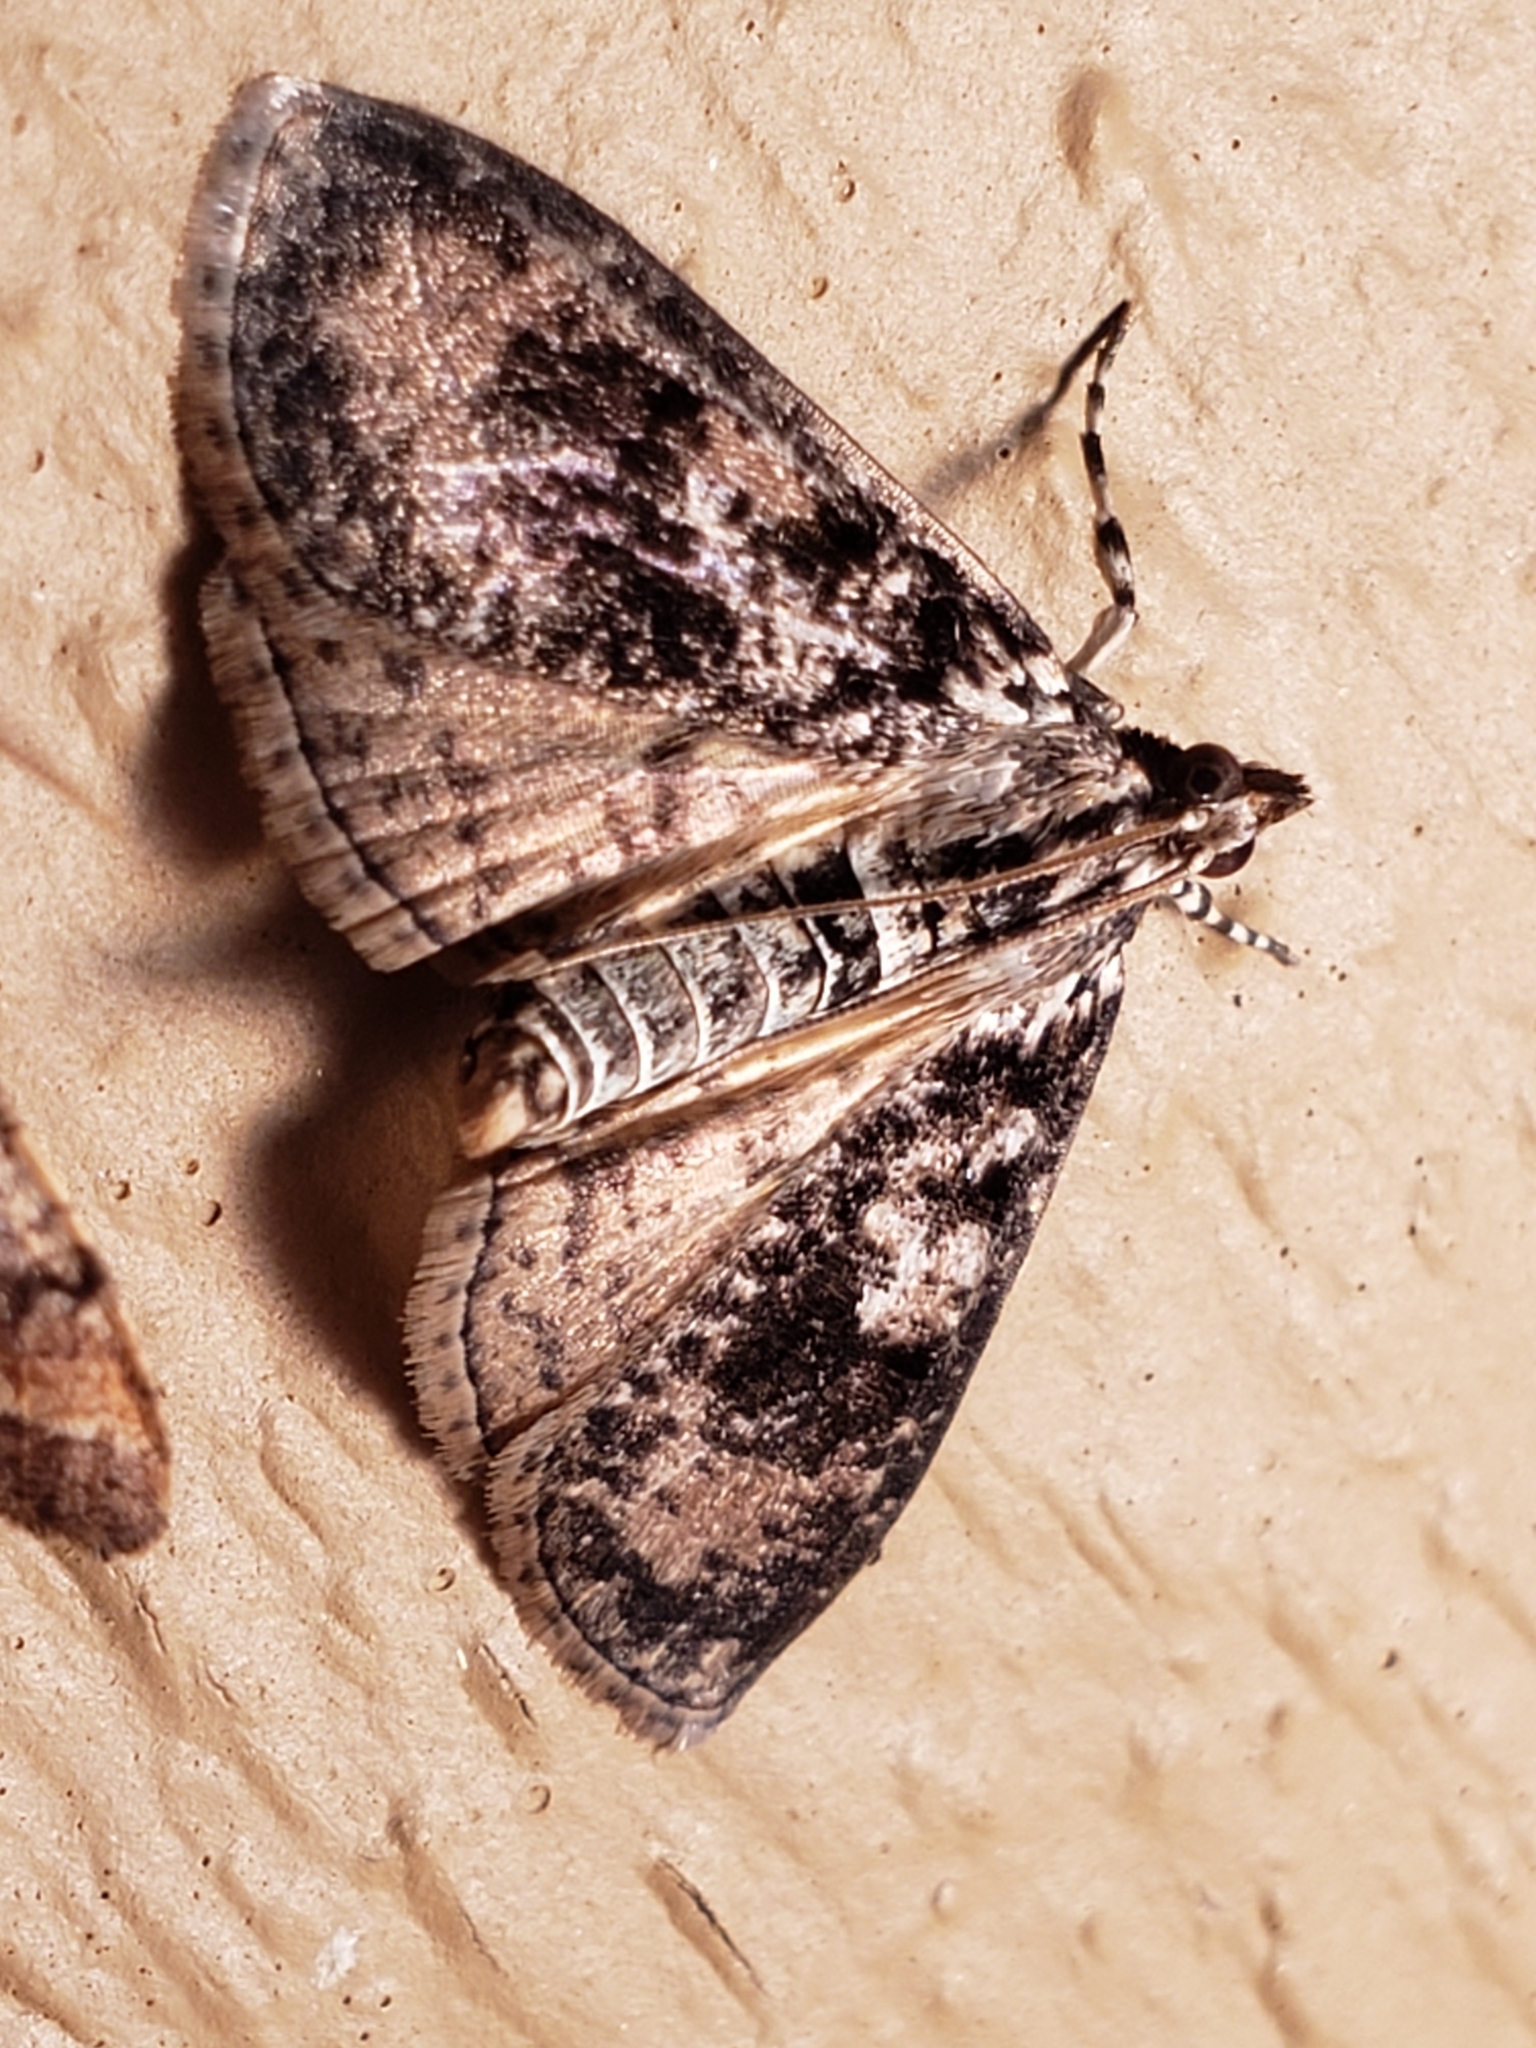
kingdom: Animalia
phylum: Arthropoda
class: Insecta
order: Lepidoptera
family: Crambidae
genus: Palpita
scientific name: Palpita magniferalis
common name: Splendid palpita moth
